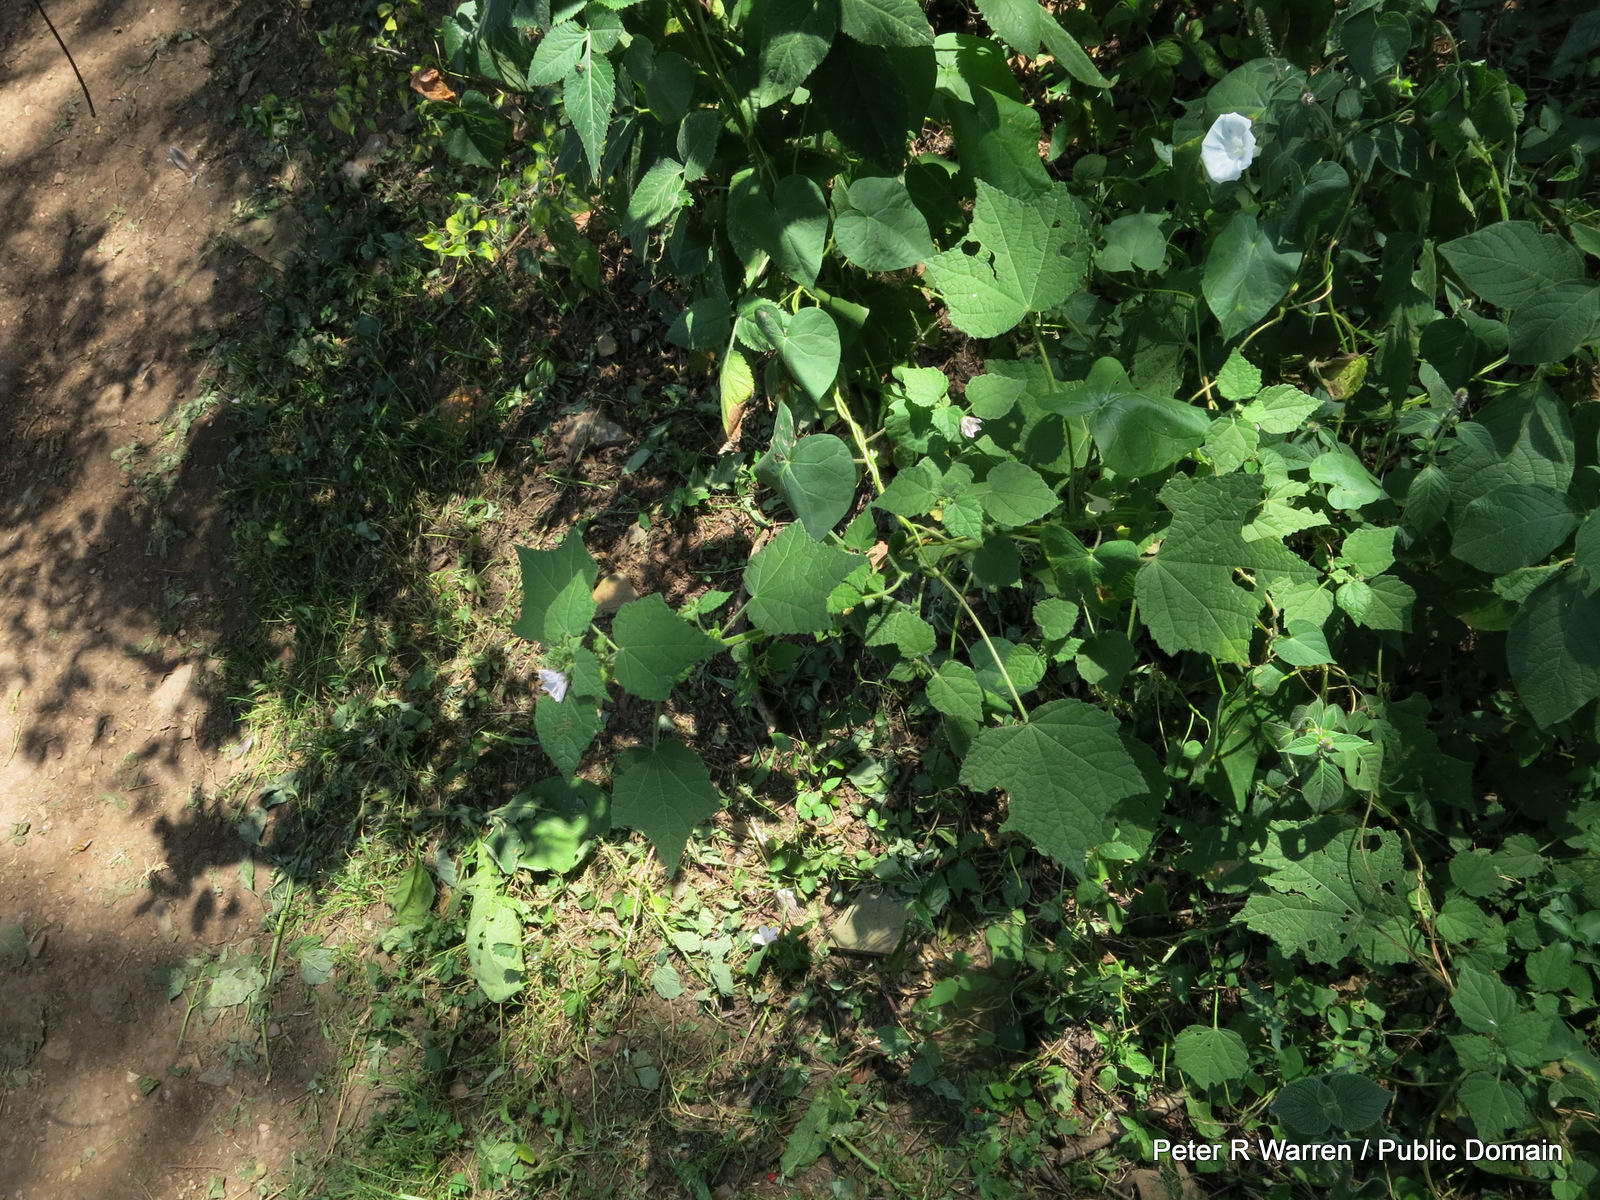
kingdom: Plantae
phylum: Tracheophyta
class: Magnoliopsida
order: Malvales
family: Malvaceae
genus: Pavonia
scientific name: Pavonia columella
